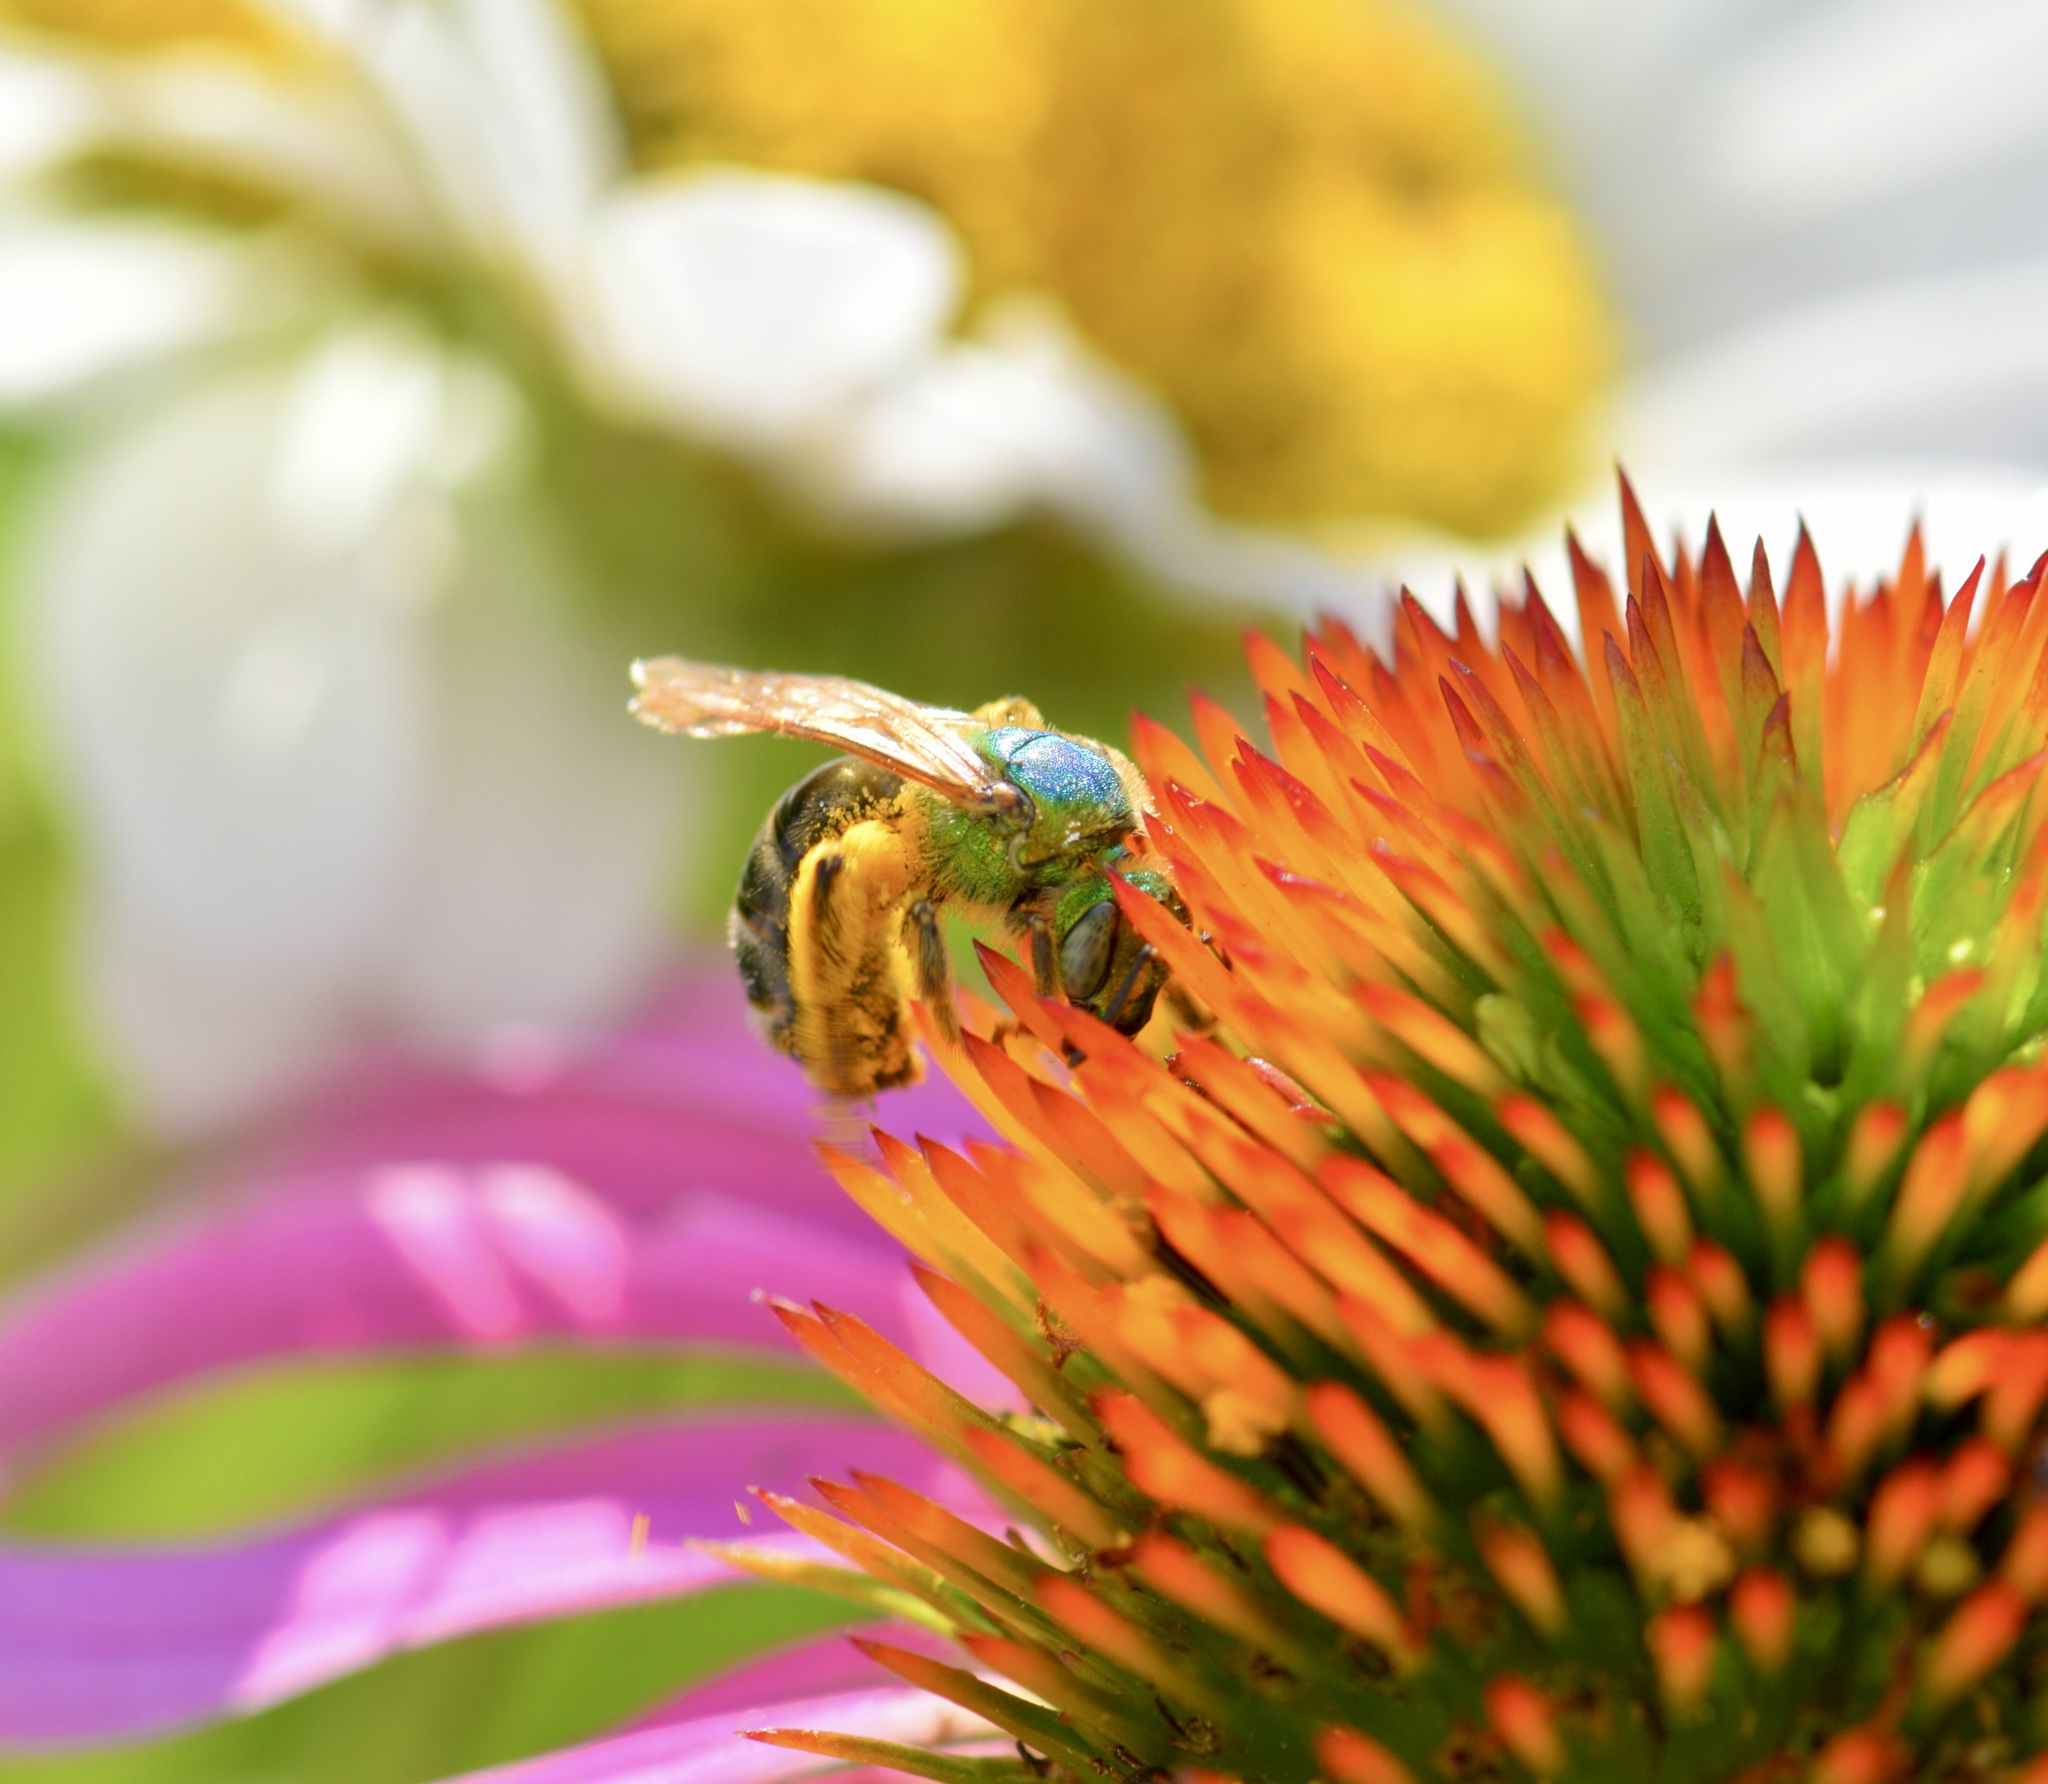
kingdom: Animalia
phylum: Arthropoda
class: Insecta
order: Hymenoptera
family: Halictidae
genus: Agapostemon
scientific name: Agapostemon virescens
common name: Bicolored striped sweat bee
